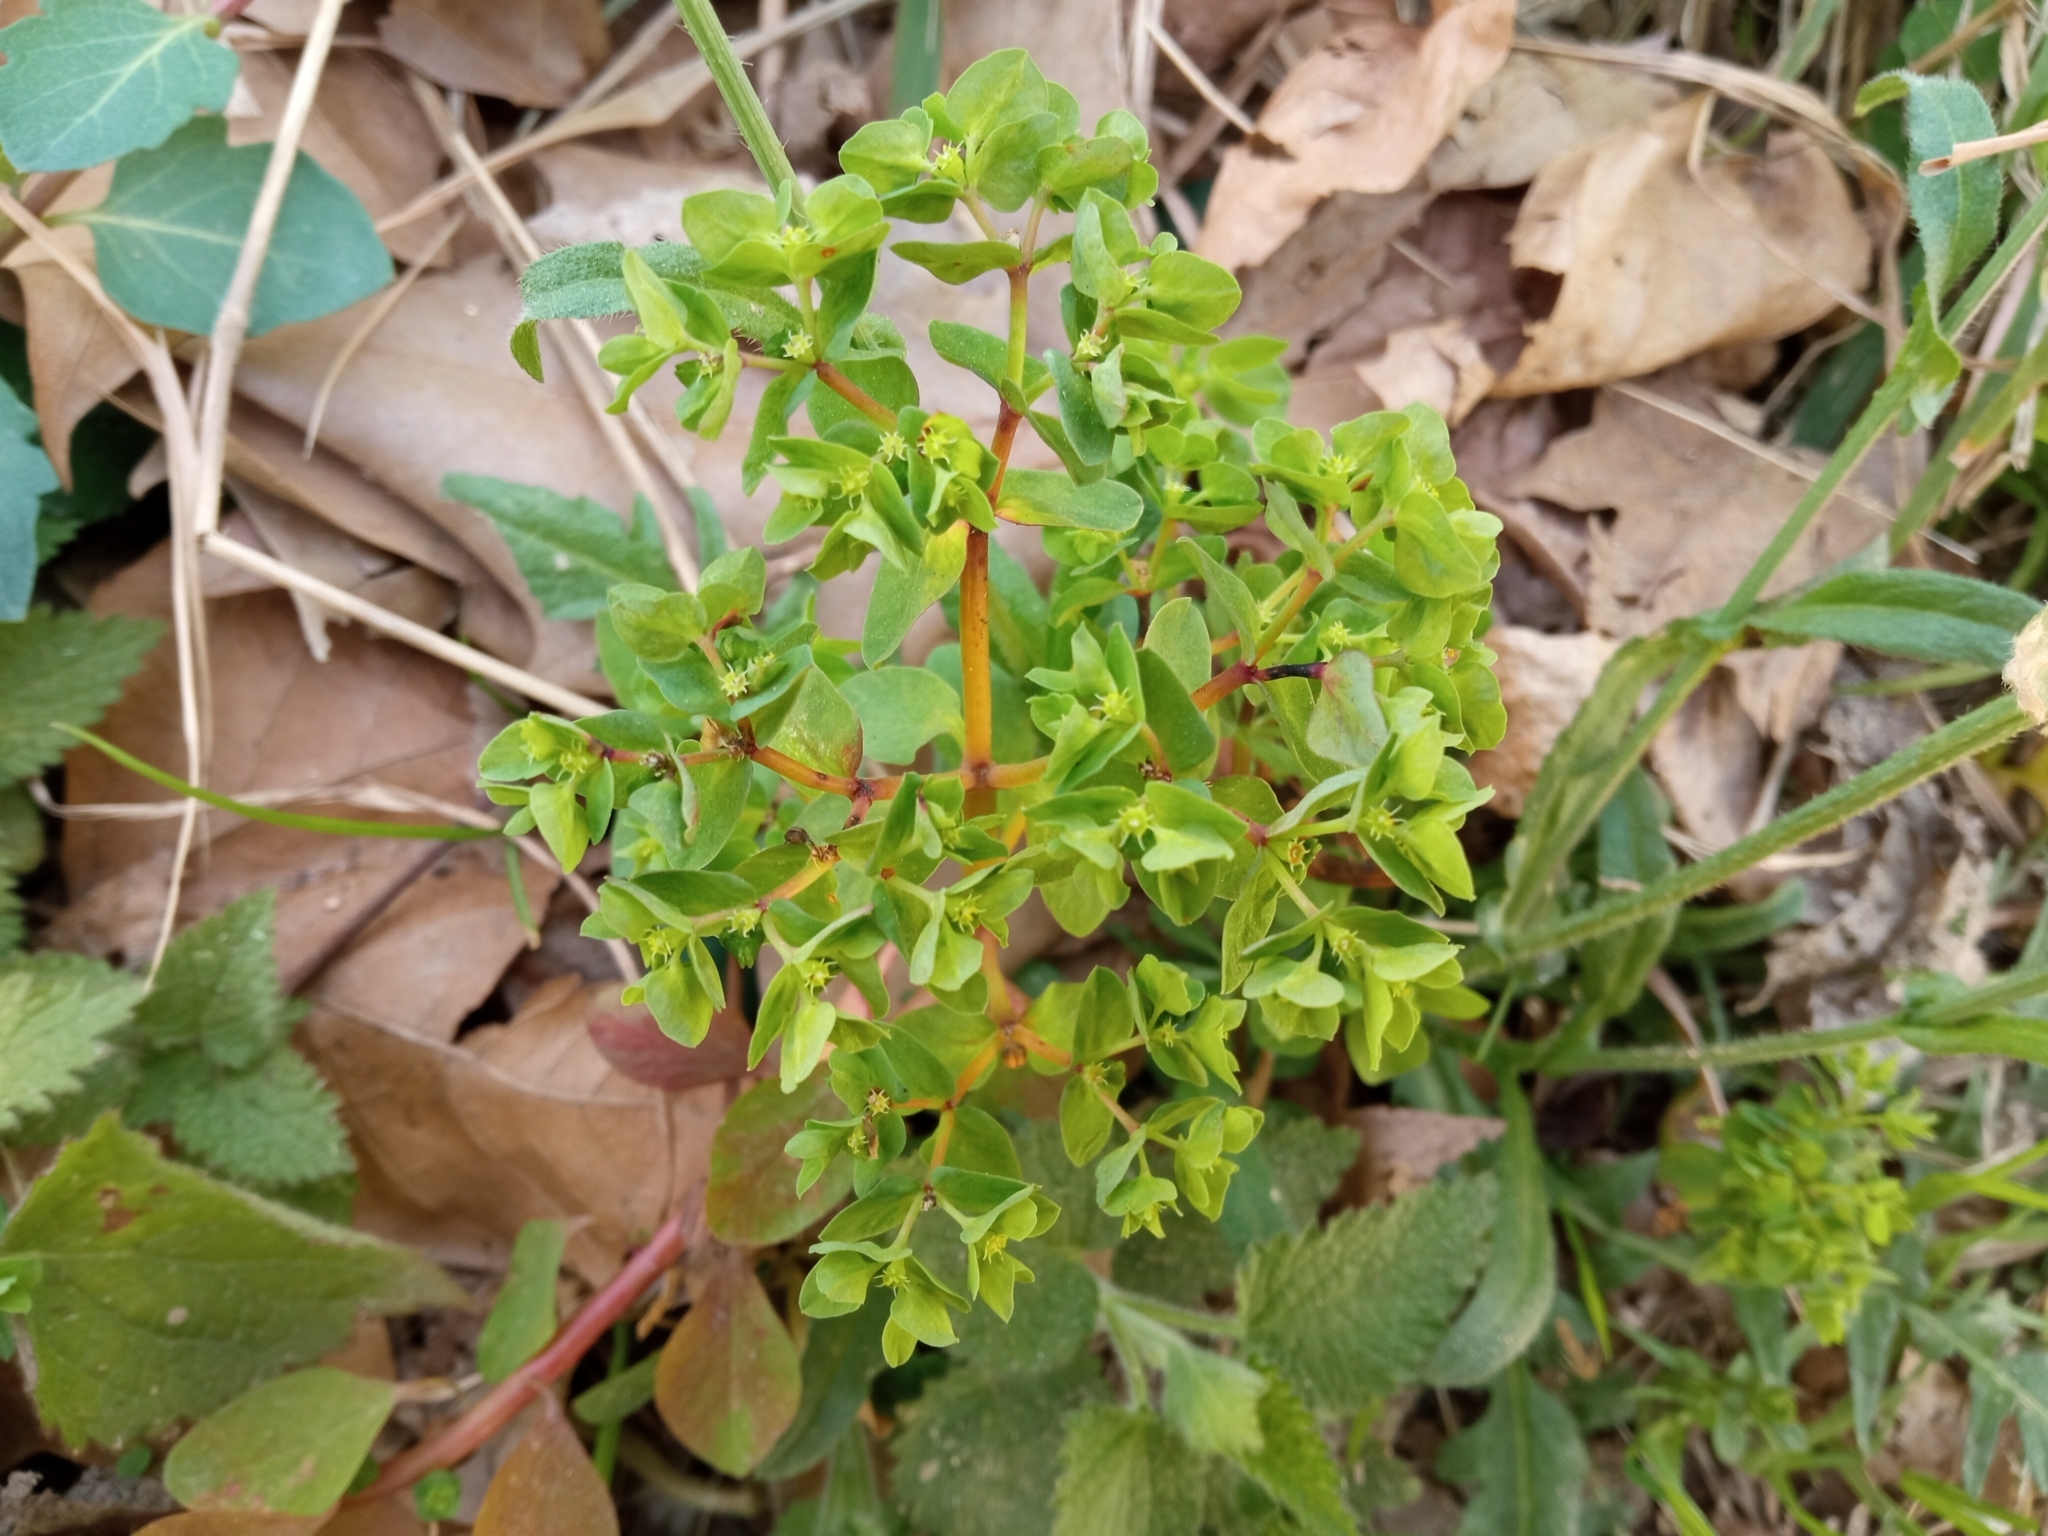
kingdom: Plantae
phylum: Tracheophyta
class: Magnoliopsida
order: Malpighiales
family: Euphorbiaceae
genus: Euphorbia
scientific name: Euphorbia peplus
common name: Petty spurge
